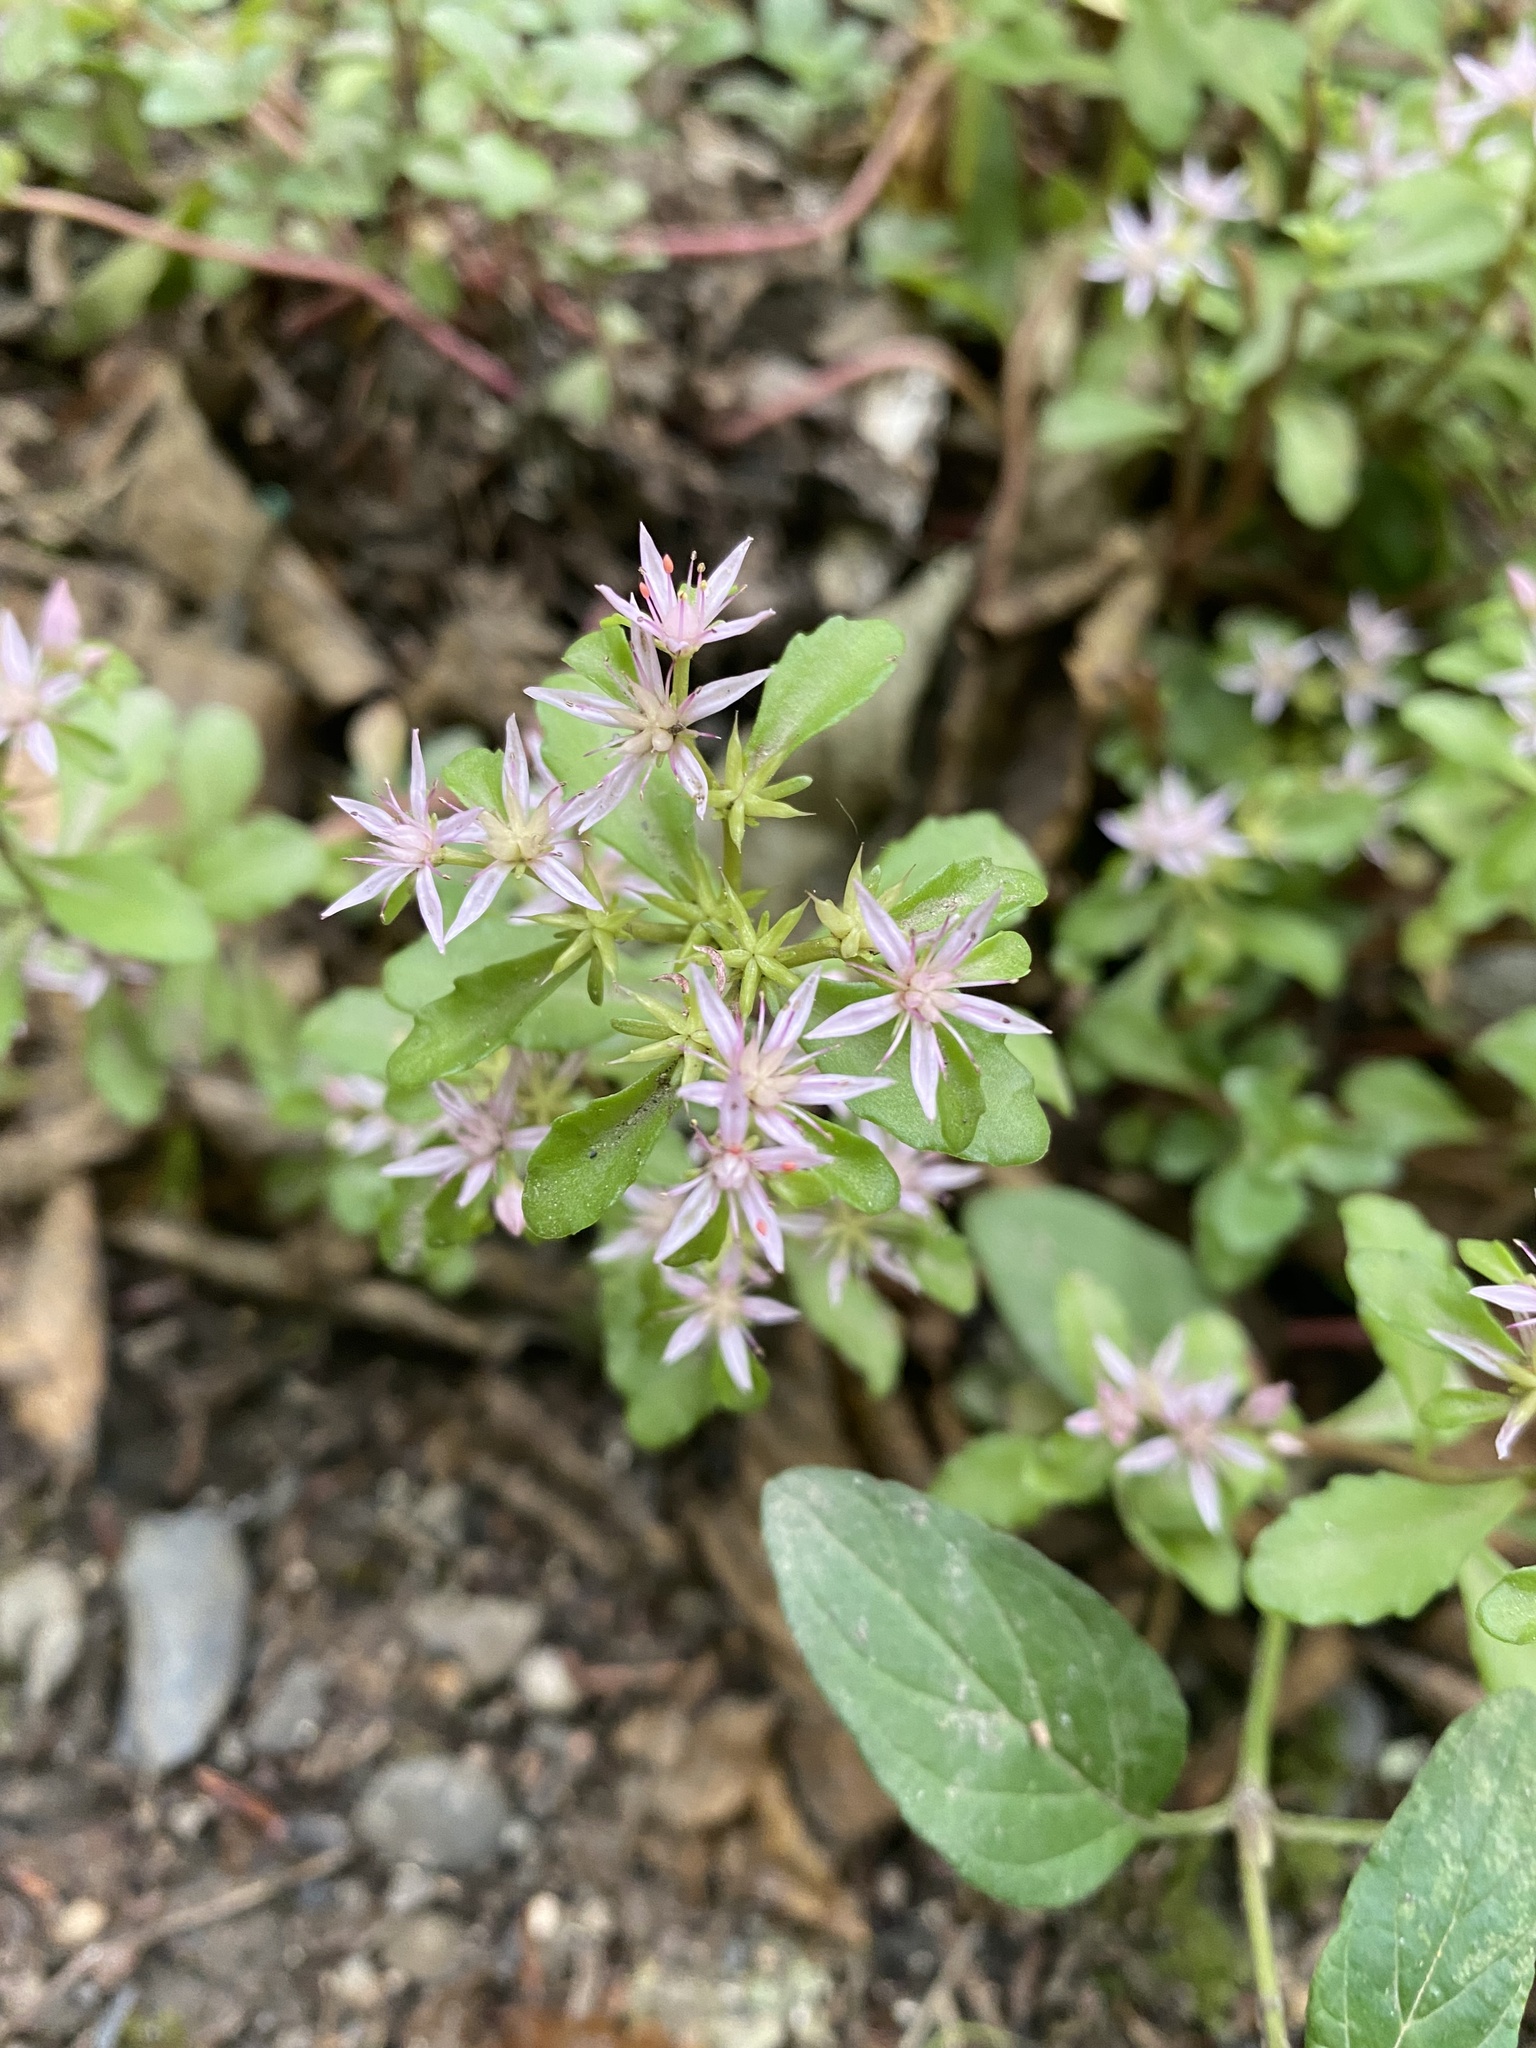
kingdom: Plantae
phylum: Tracheophyta
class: Magnoliopsida
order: Saxifragales
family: Crassulaceae
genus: Phedimus
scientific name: Phedimus stolonifer
